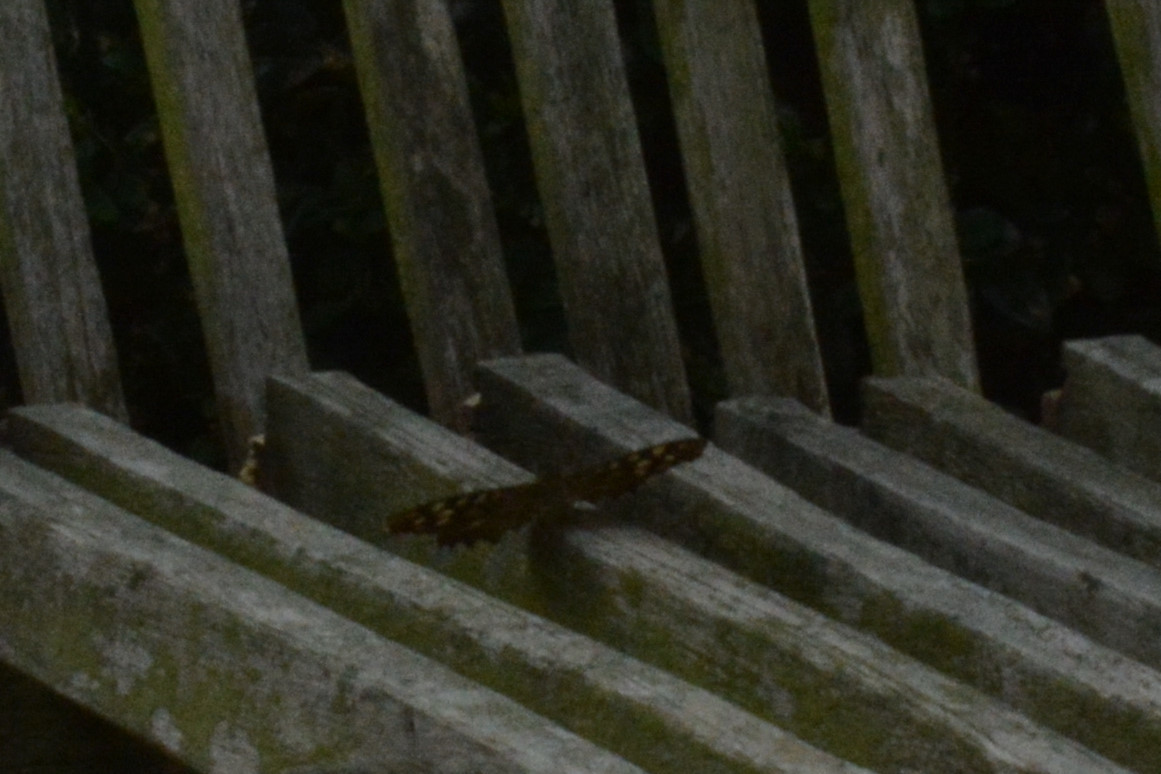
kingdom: Animalia
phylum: Arthropoda
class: Insecta
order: Lepidoptera
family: Nymphalidae
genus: Pararge
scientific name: Pararge aegeria
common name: Speckled wood
